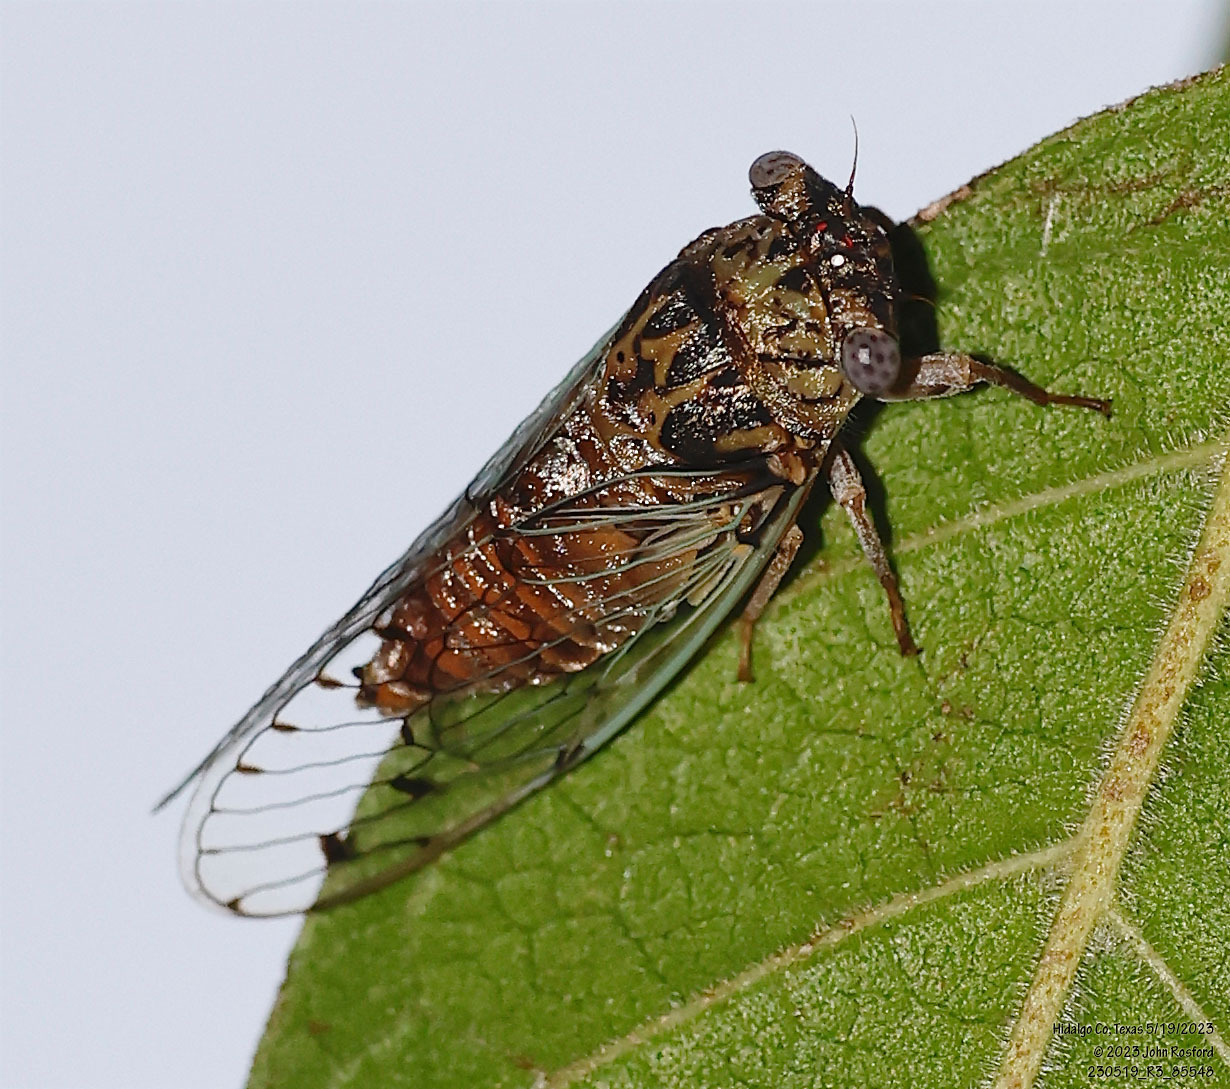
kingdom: Animalia
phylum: Arthropoda
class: Insecta
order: Hemiptera
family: Cicadidae
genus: Pacarina
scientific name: Pacarina puella
